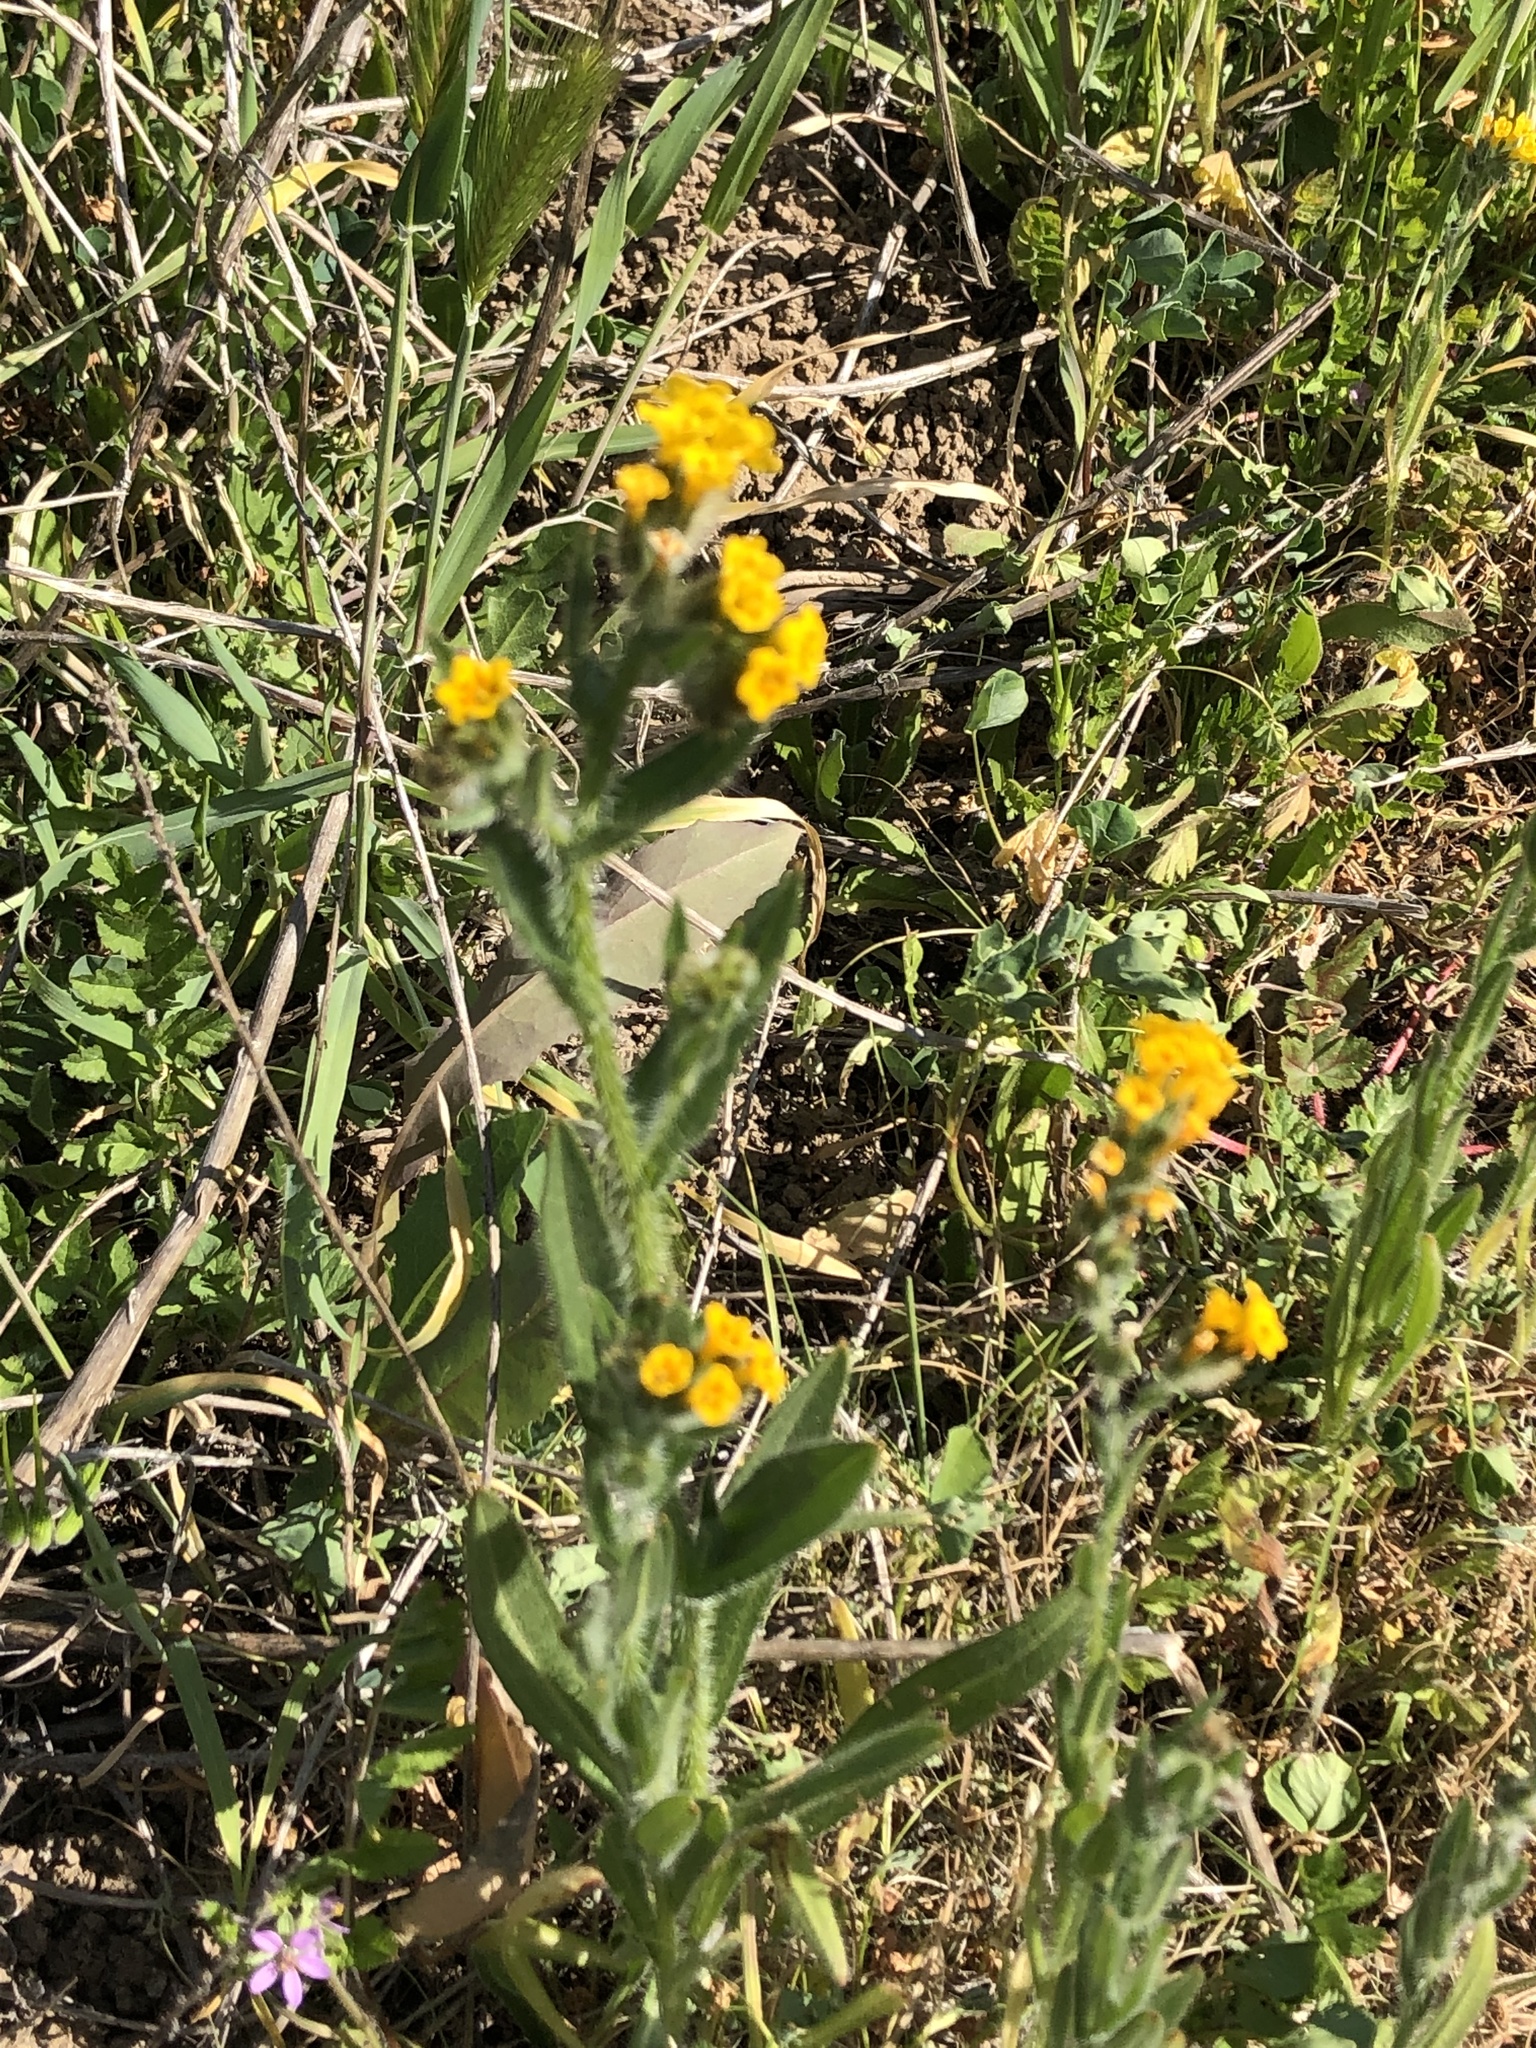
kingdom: Plantae
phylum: Tracheophyta
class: Magnoliopsida
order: Boraginales
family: Boraginaceae
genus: Amsinckia
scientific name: Amsinckia menziesii
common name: Menzies' fiddleneck
